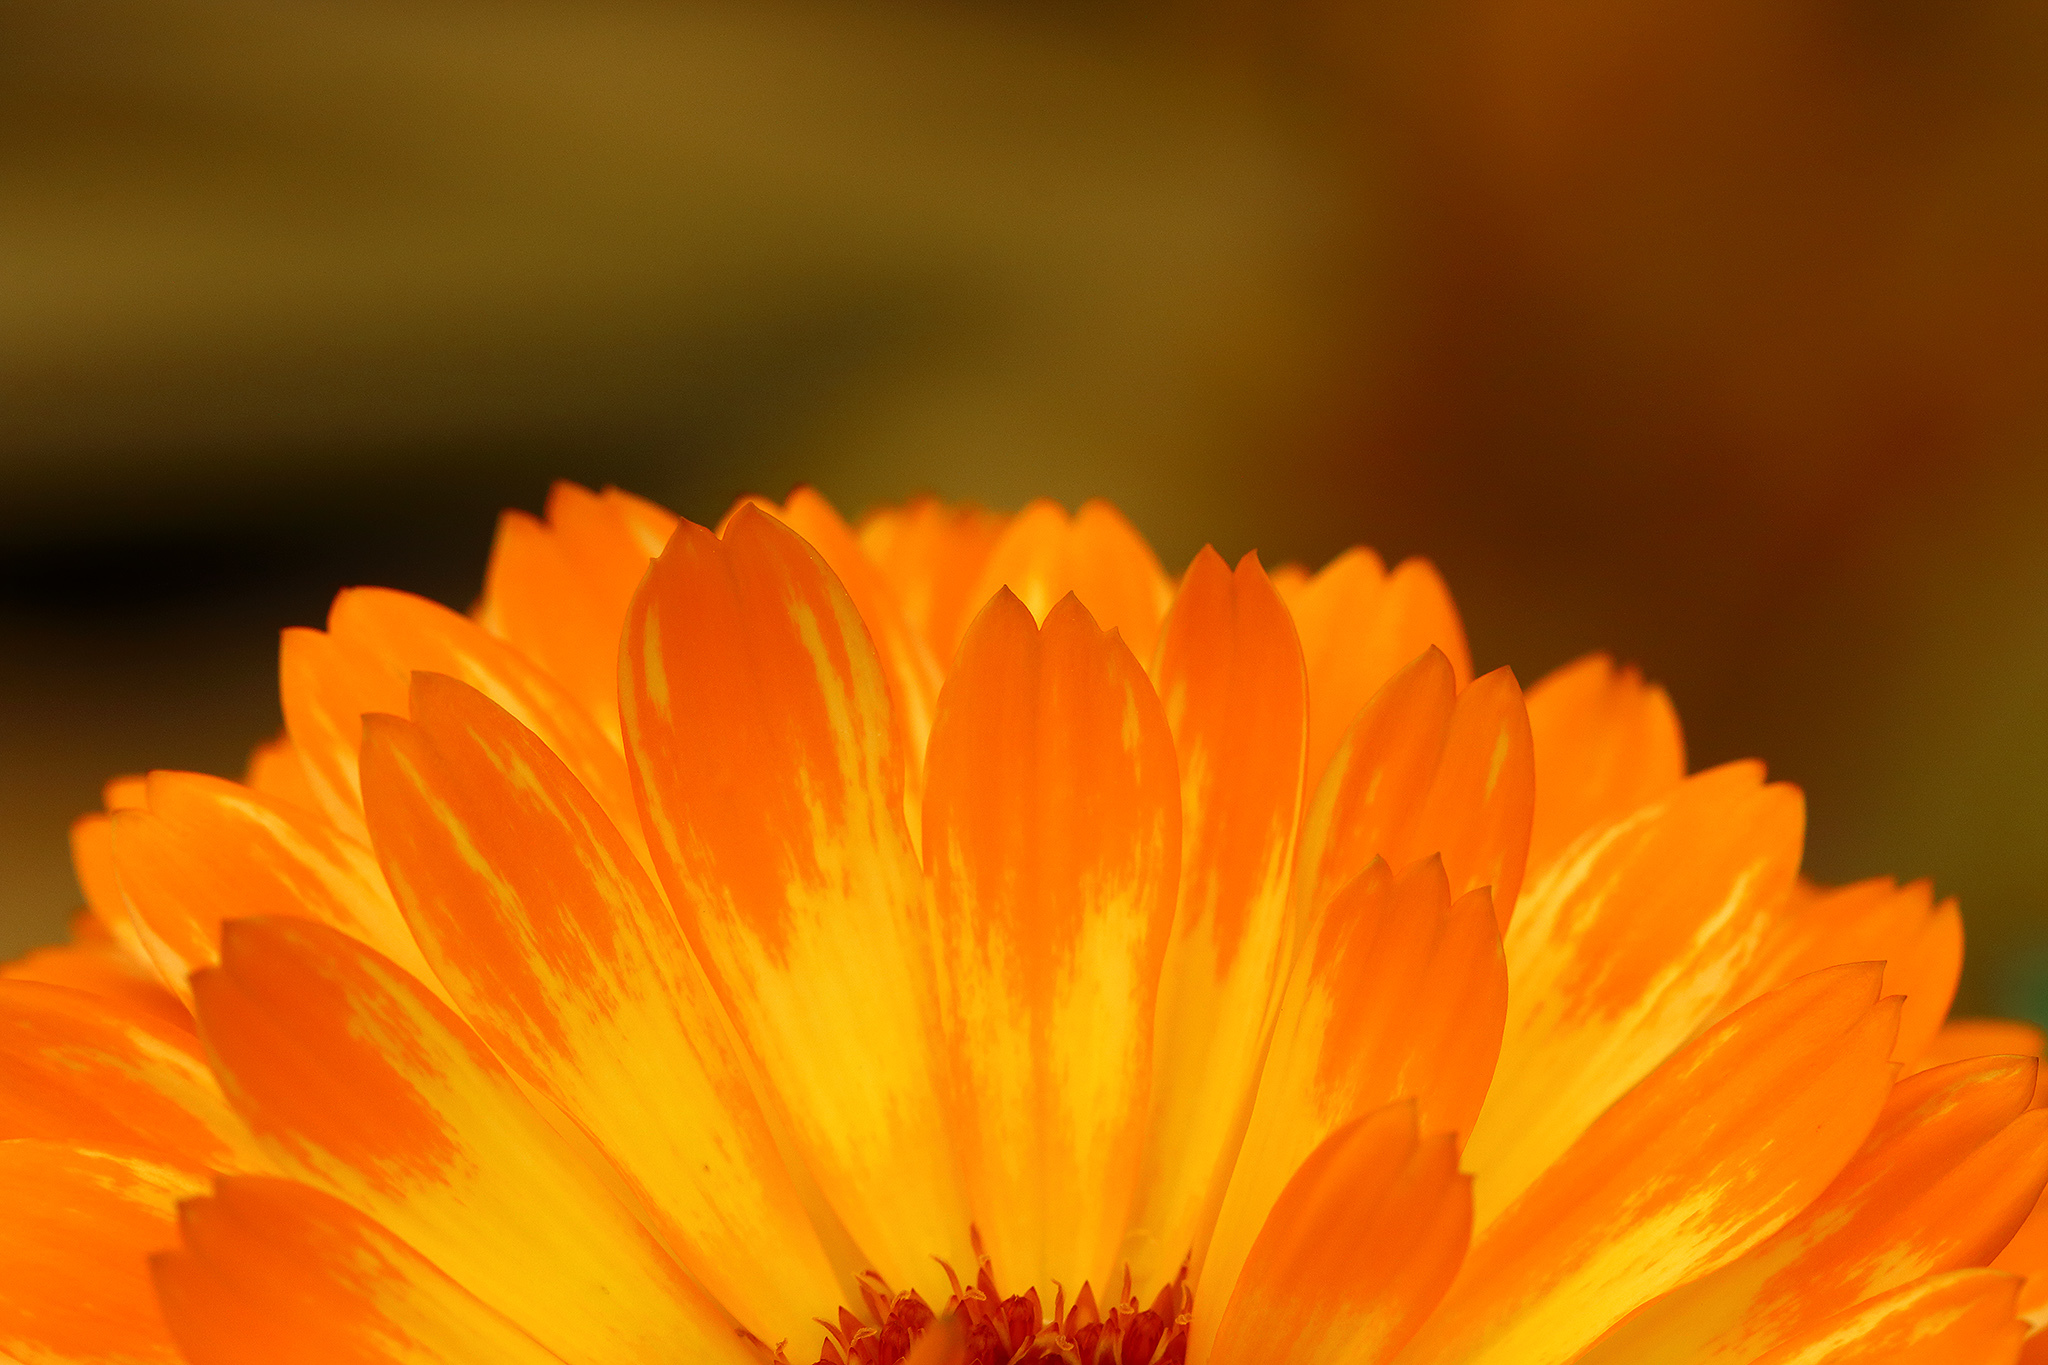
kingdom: Plantae
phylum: Tracheophyta
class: Magnoliopsida
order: Asterales
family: Asteraceae
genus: Calendula
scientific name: Calendula officinalis
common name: Pot marigold
